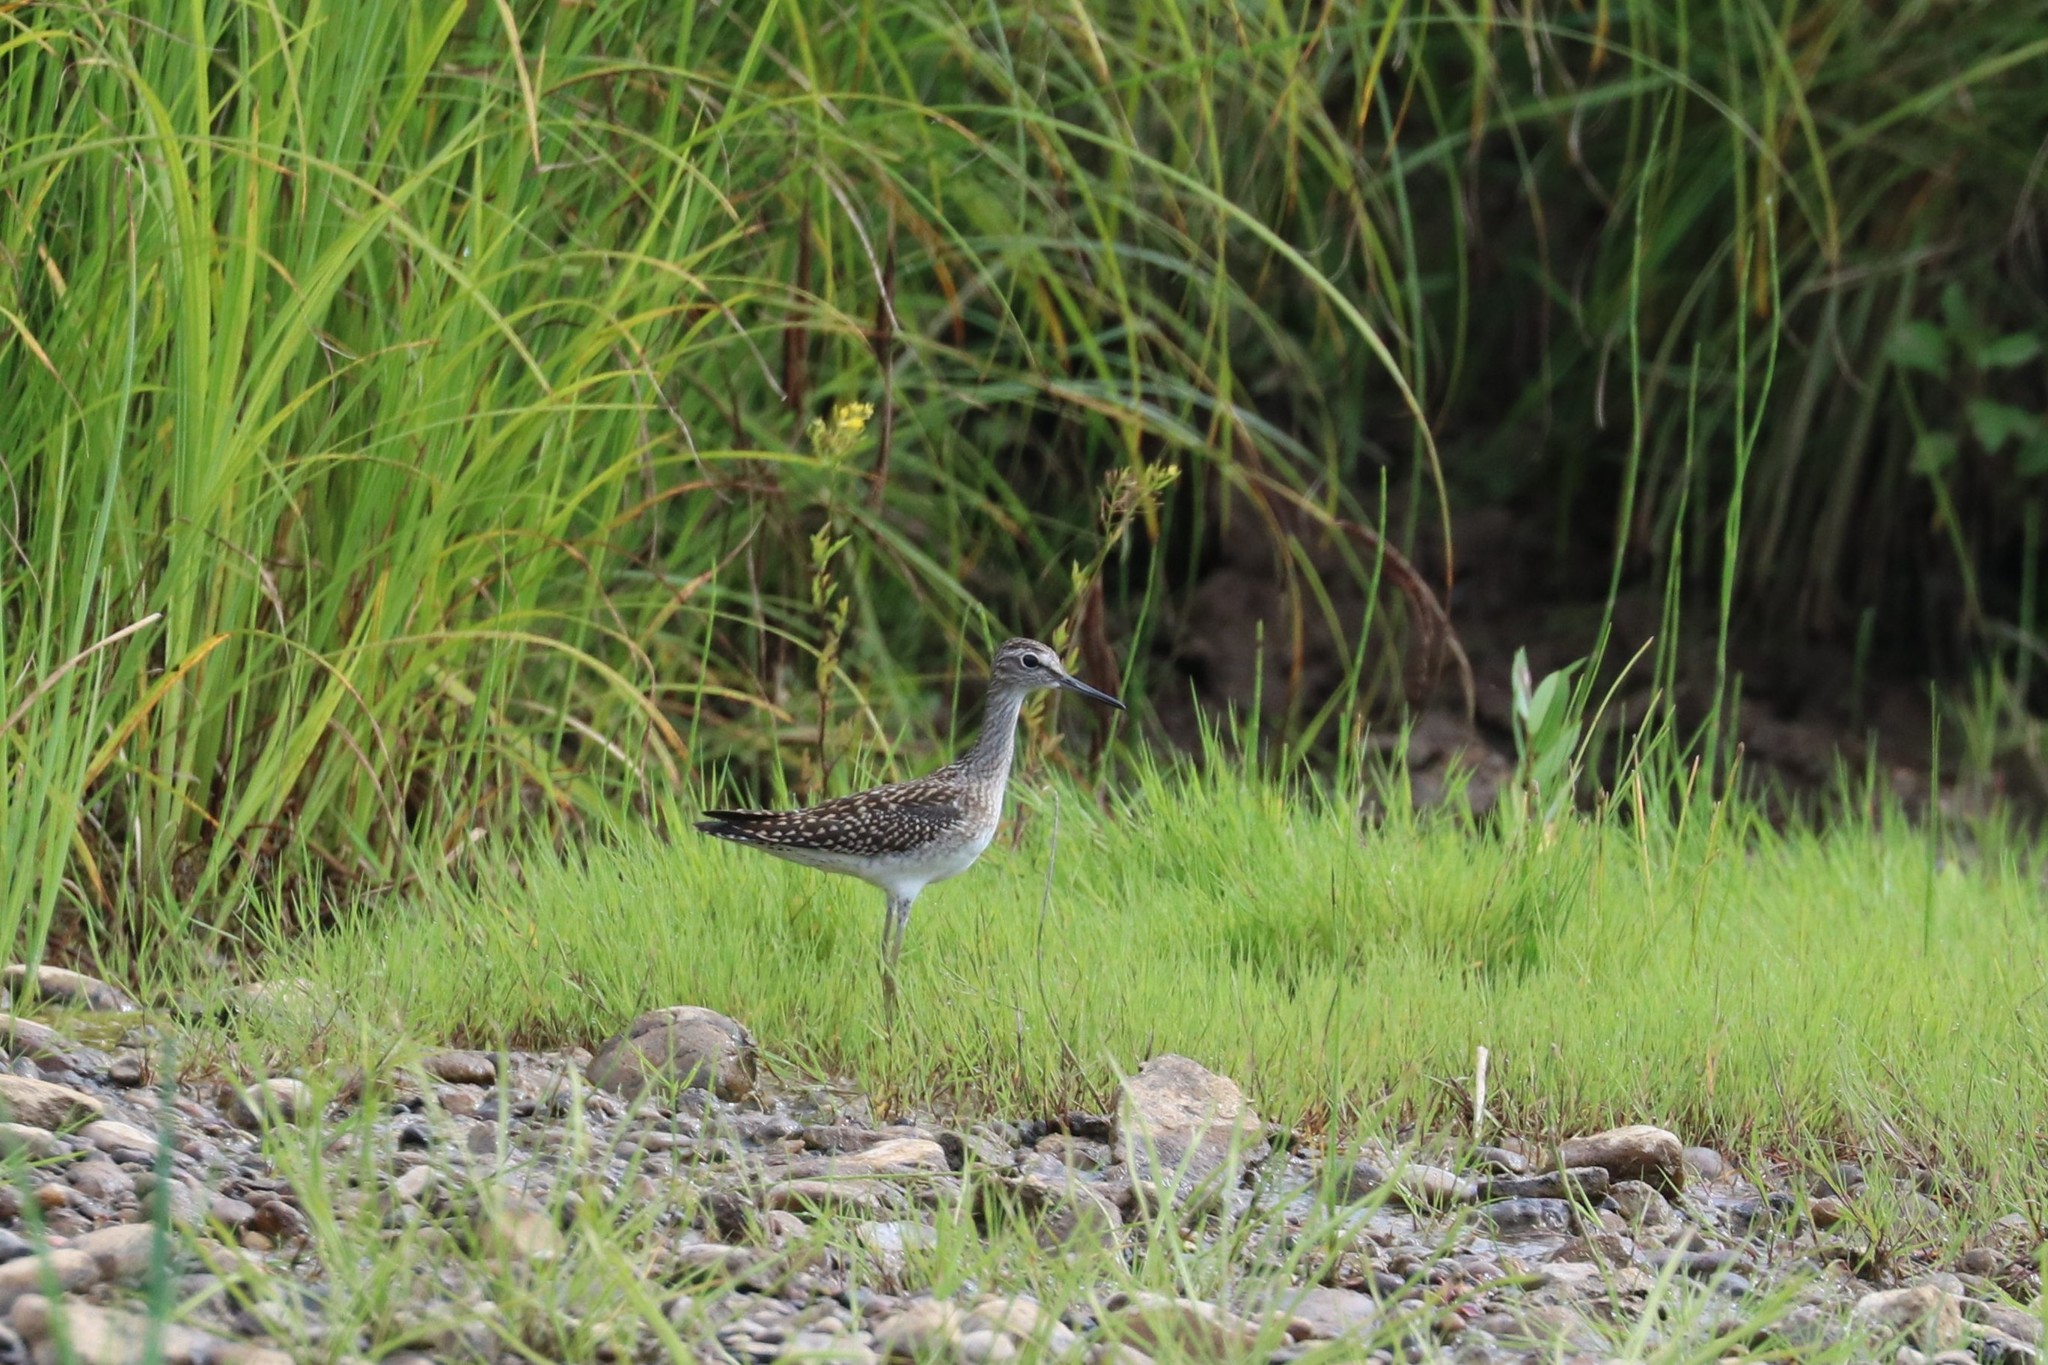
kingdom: Animalia
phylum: Chordata
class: Aves
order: Charadriiformes
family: Scolopacidae
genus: Tringa
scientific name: Tringa glareola
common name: Wood sandpiper
